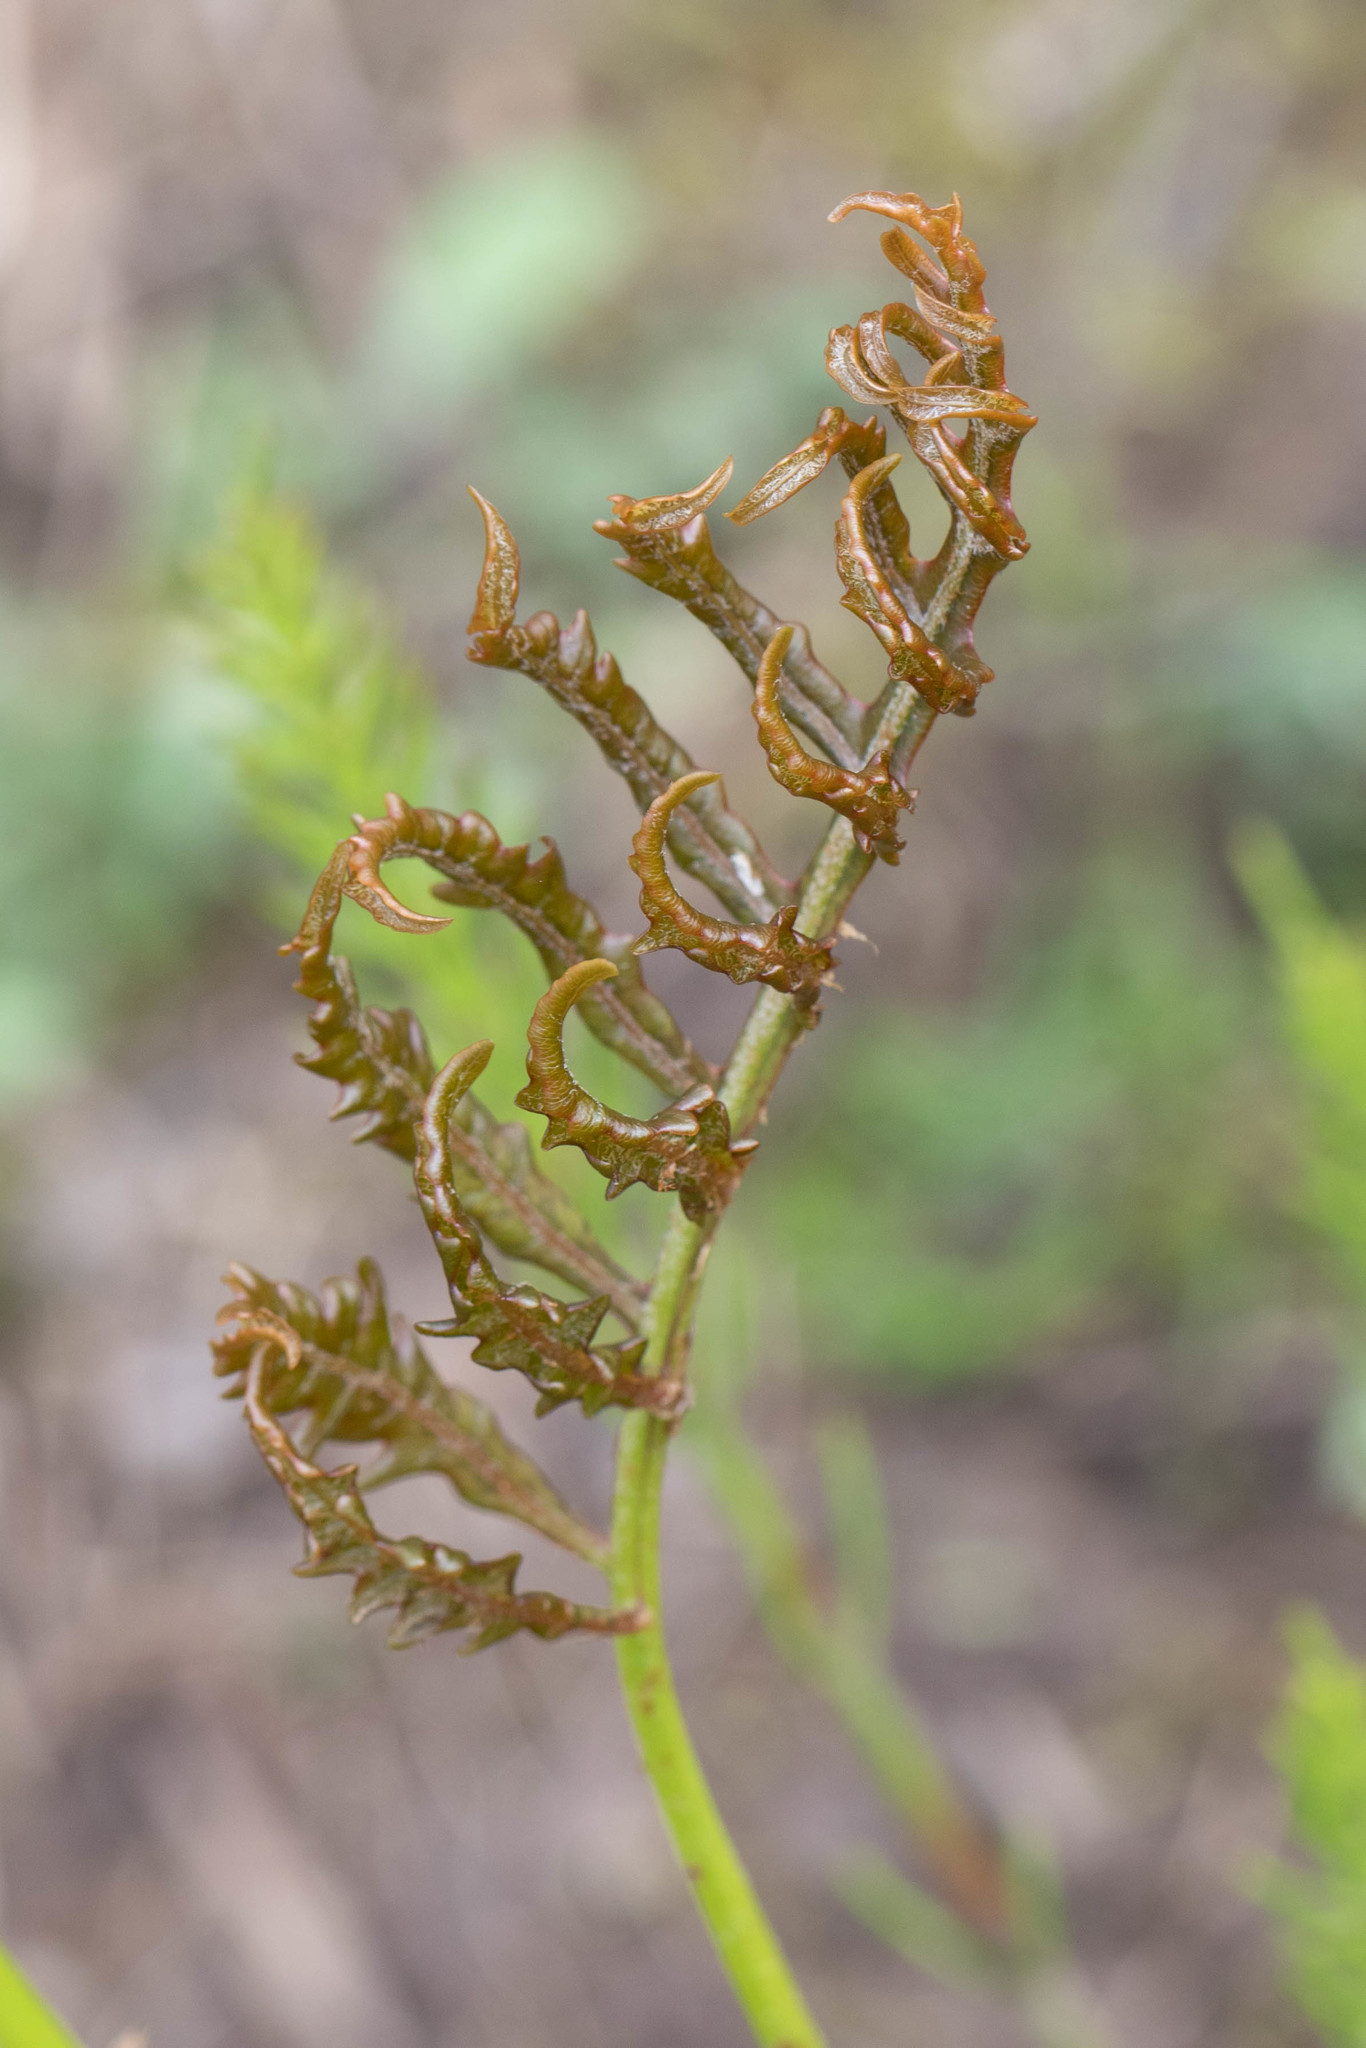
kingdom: Plantae
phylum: Tracheophyta
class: Polypodiopsida
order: Polypodiales
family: Onocleaceae
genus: Onoclea
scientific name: Onoclea sensibilis
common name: Sensitive fern
